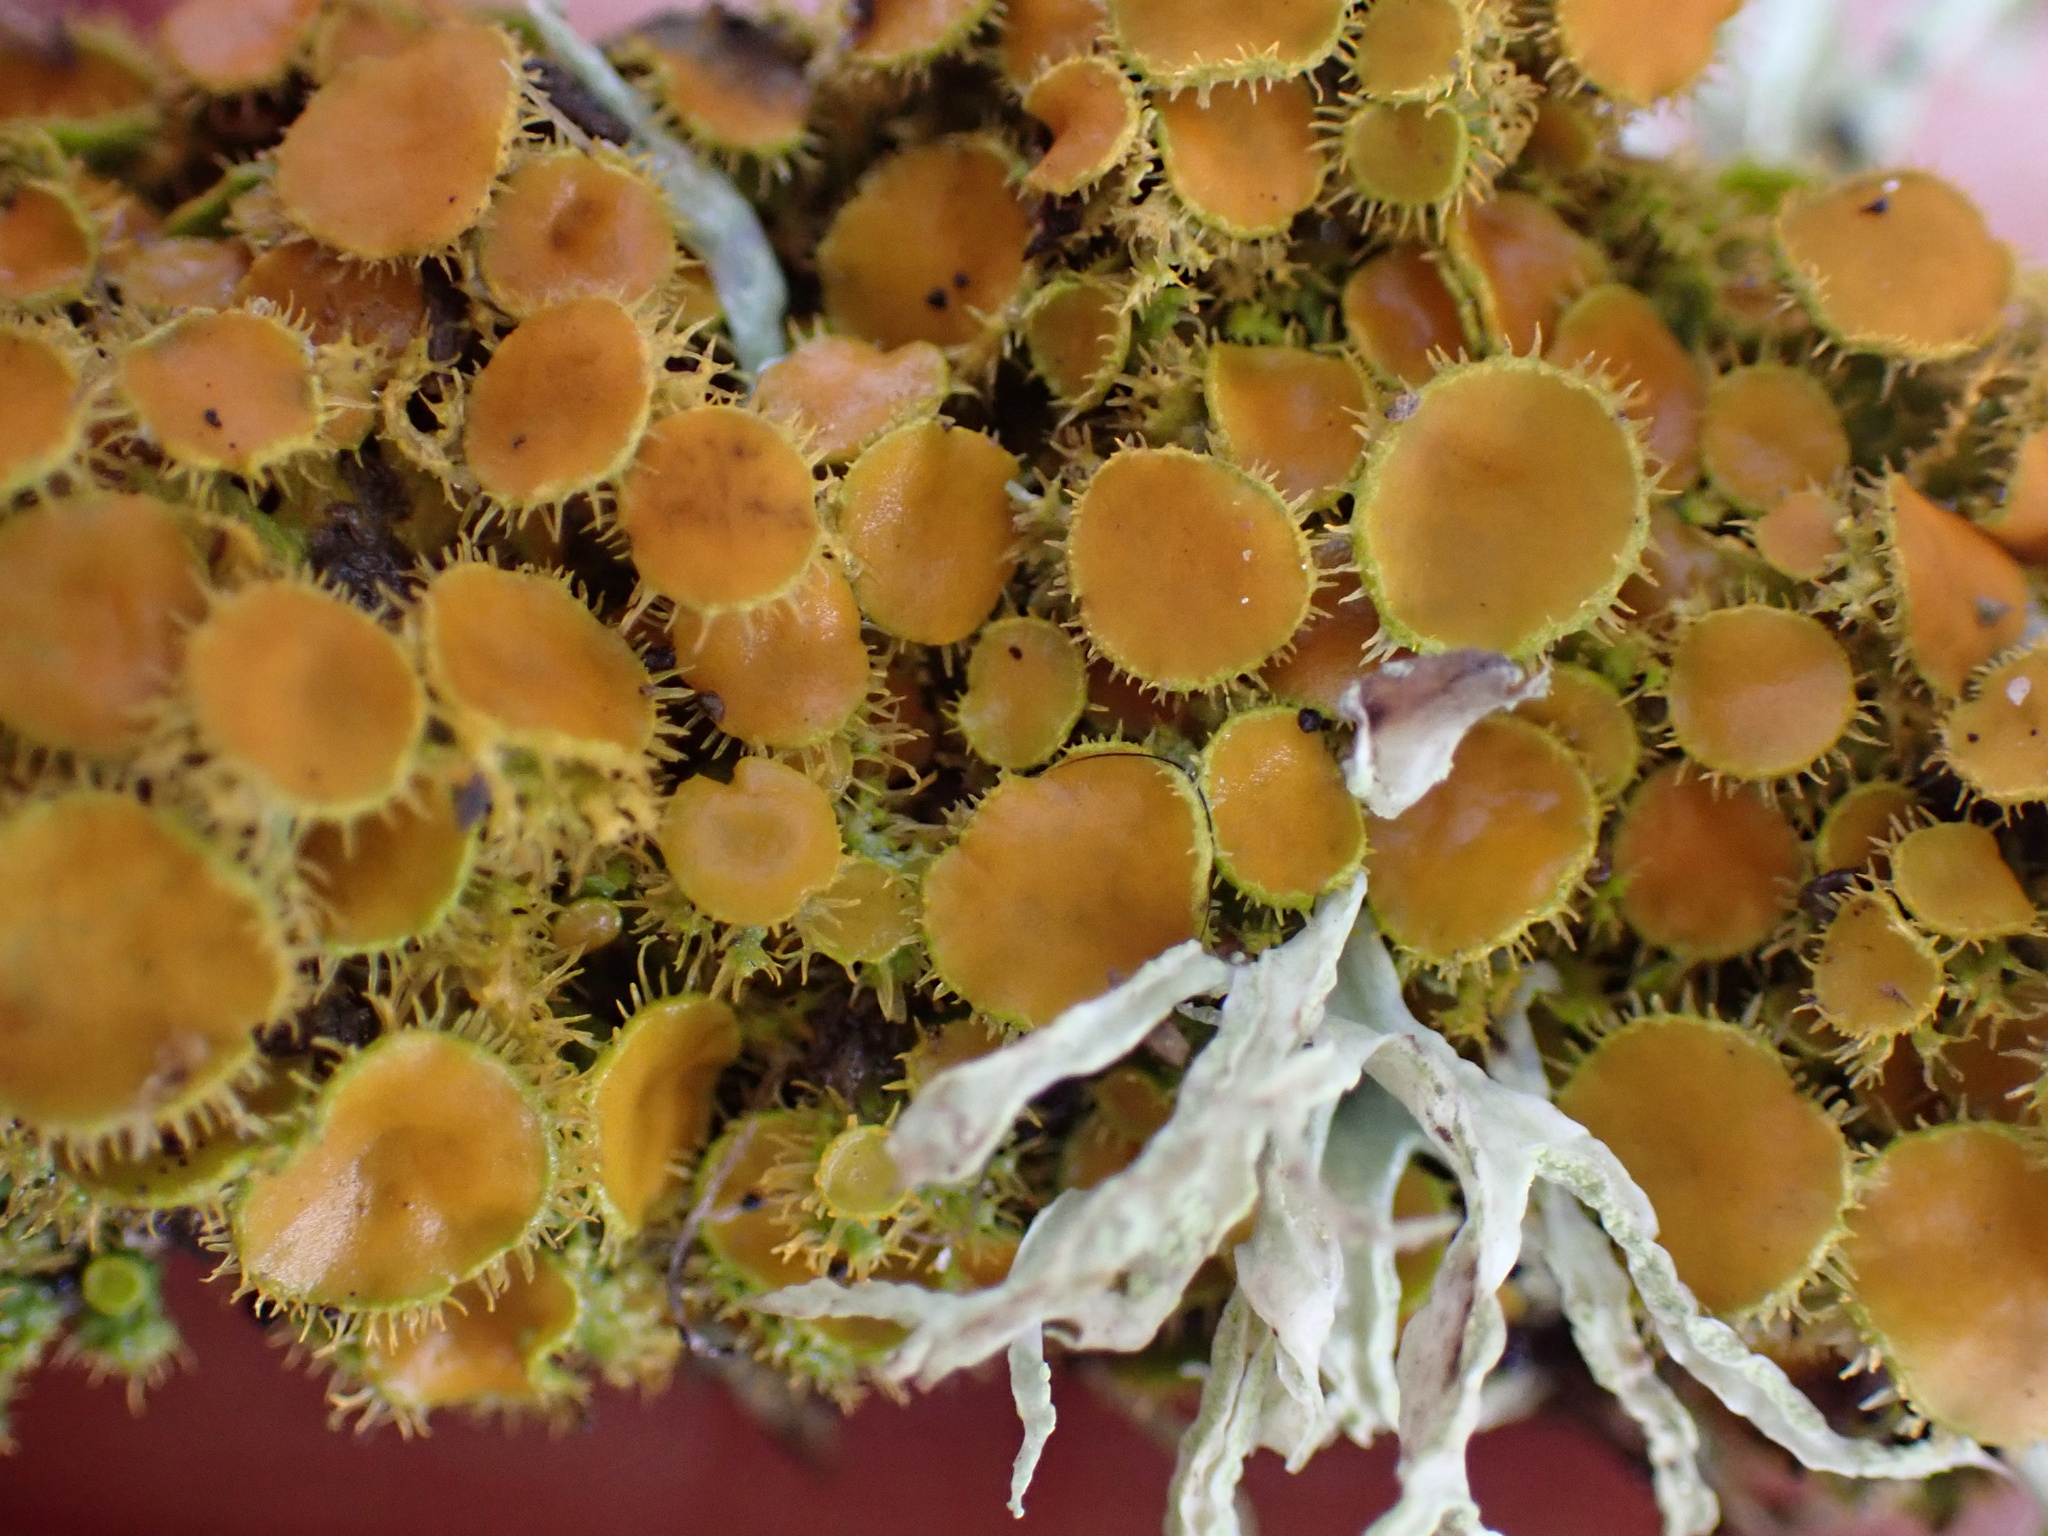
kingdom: Fungi
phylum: Ascomycota
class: Lecanoromycetes
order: Teloschistales
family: Teloschistaceae
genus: Niorma
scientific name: Niorma chrysophthalma
